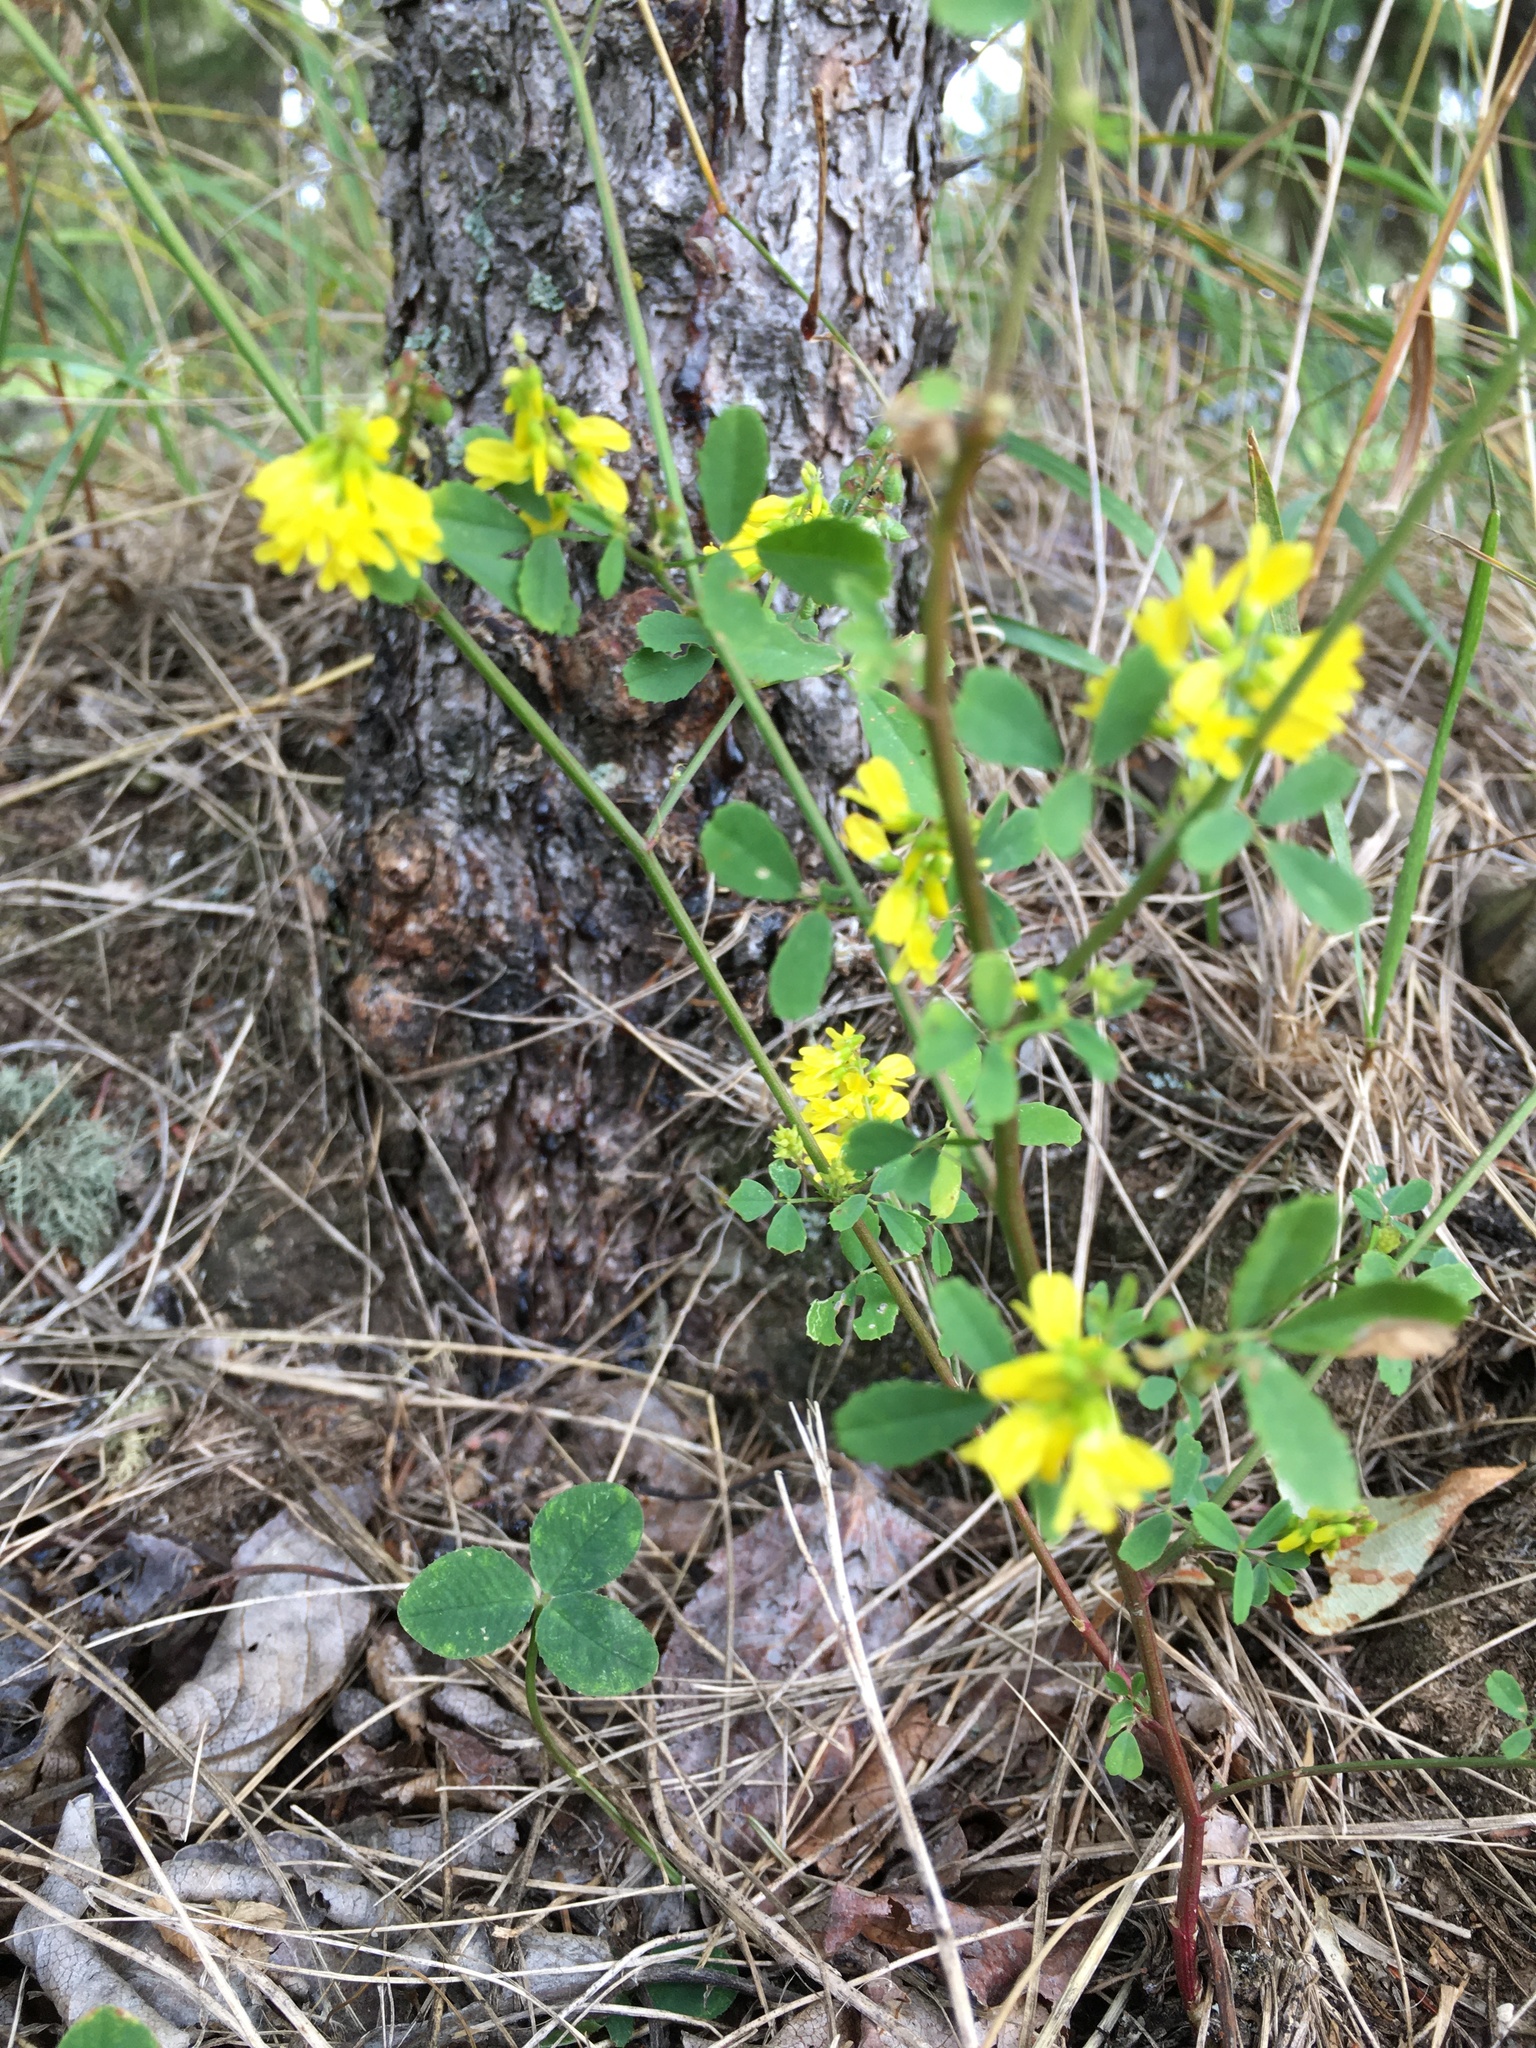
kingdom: Plantae
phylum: Tracheophyta
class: Magnoliopsida
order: Fabales
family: Fabaceae
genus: Melilotus
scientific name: Melilotus officinalis
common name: Sweetclover
